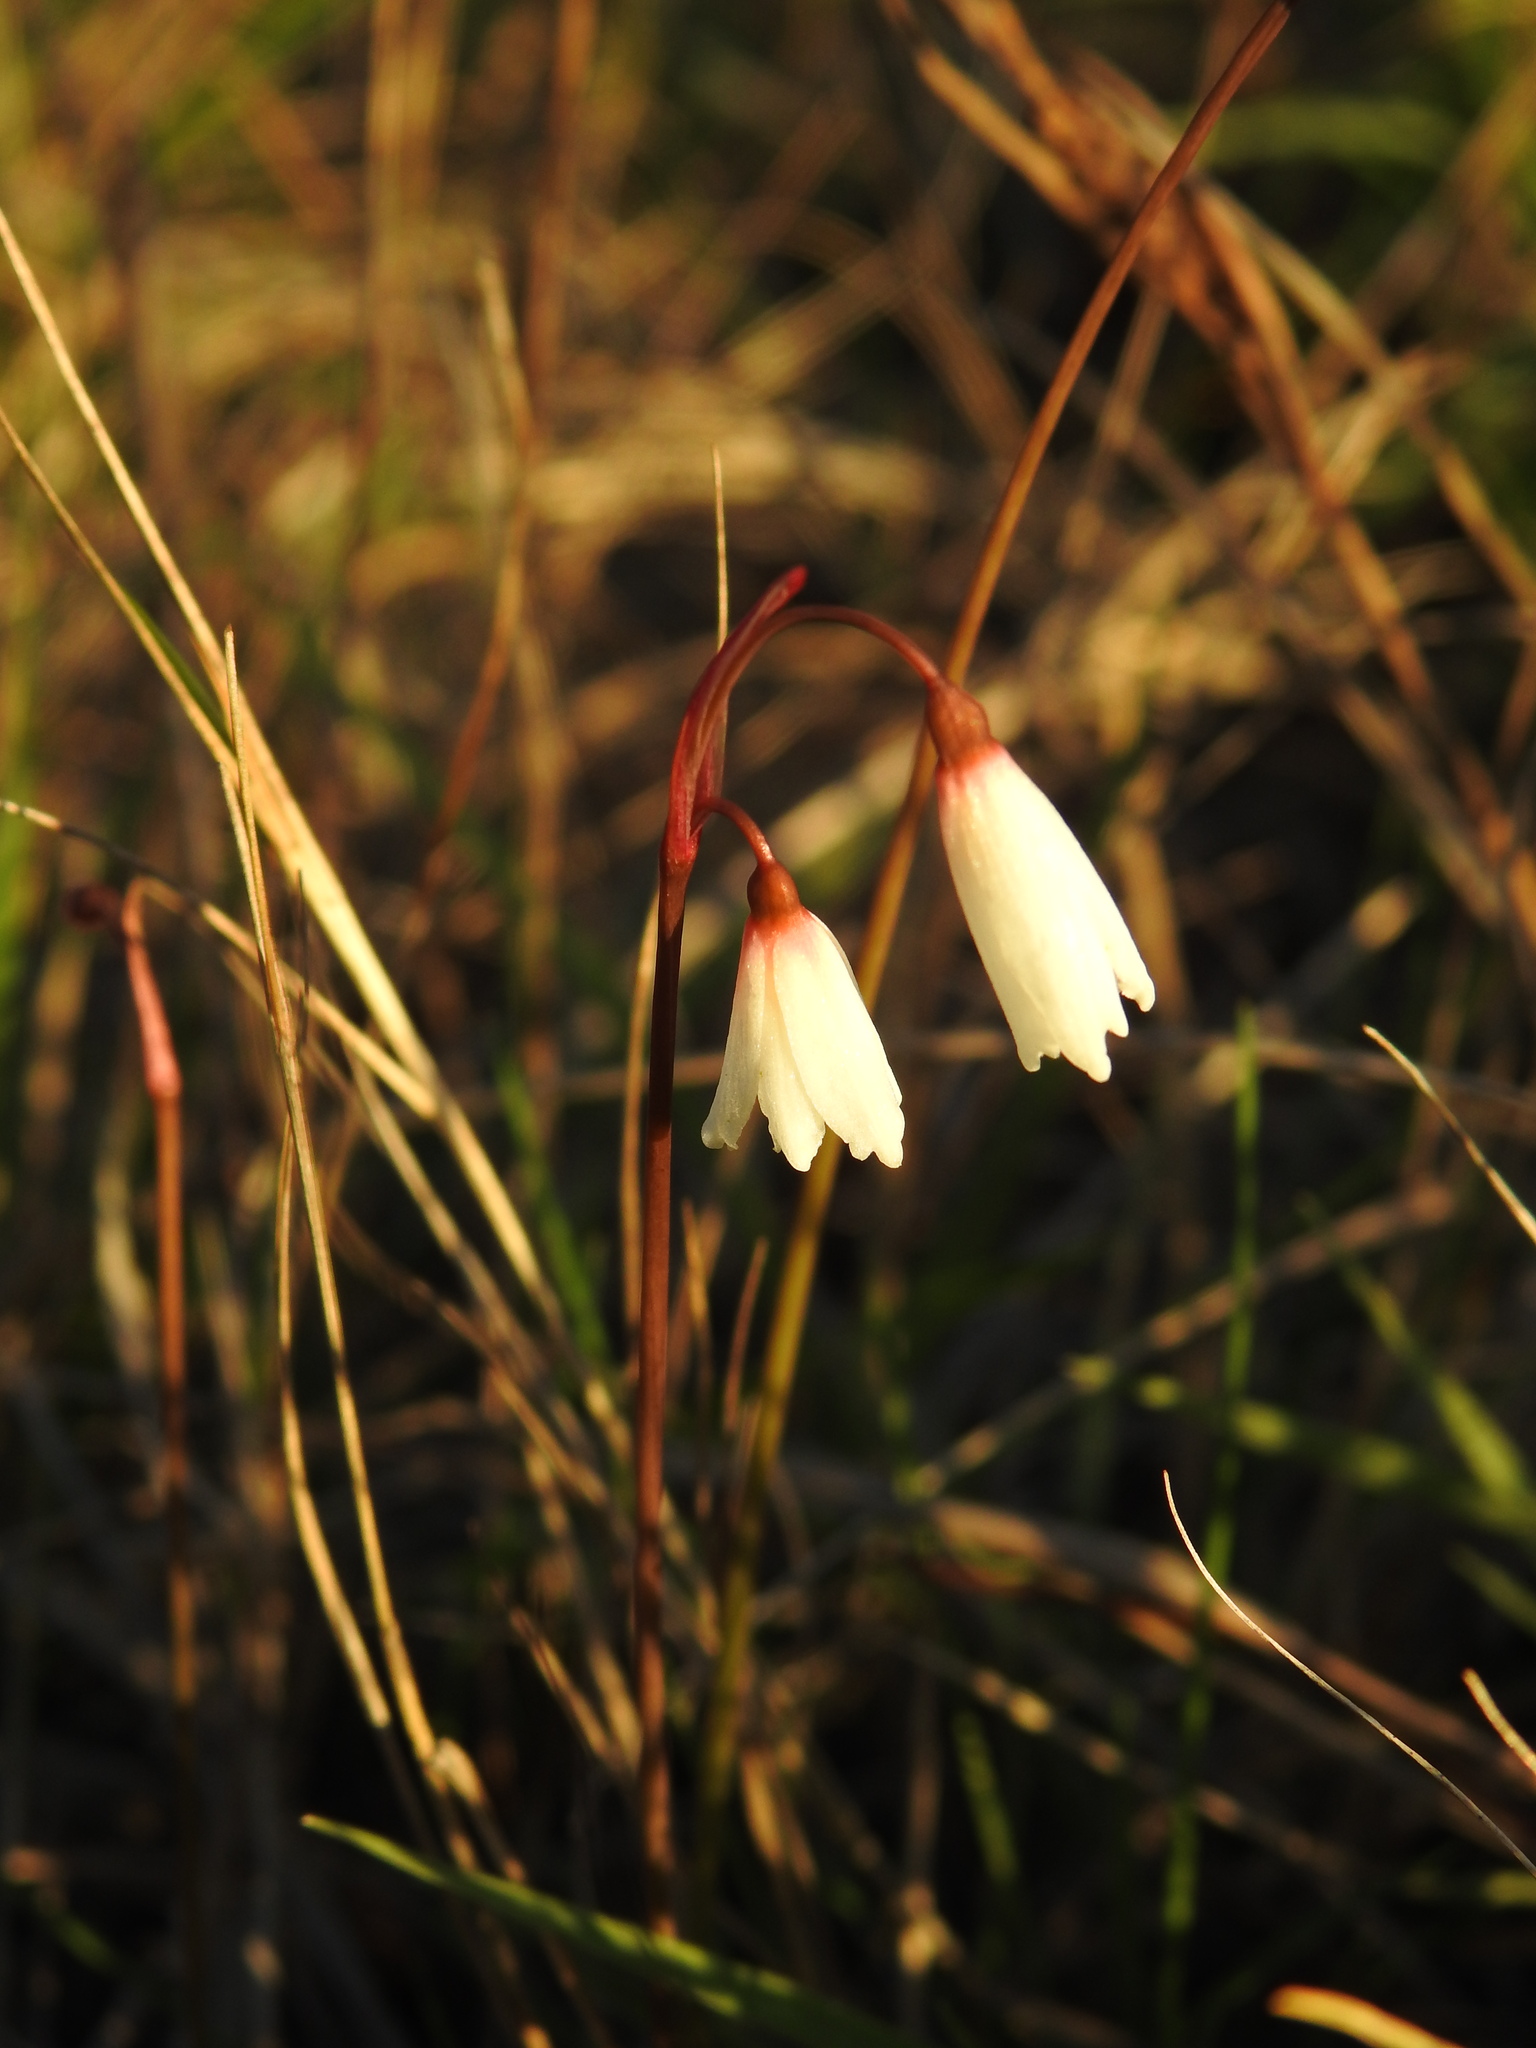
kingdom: Plantae
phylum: Tracheophyta
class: Liliopsida
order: Asparagales
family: Amaryllidaceae
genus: Acis
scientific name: Acis autumnalis
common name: Autumn snowflake
